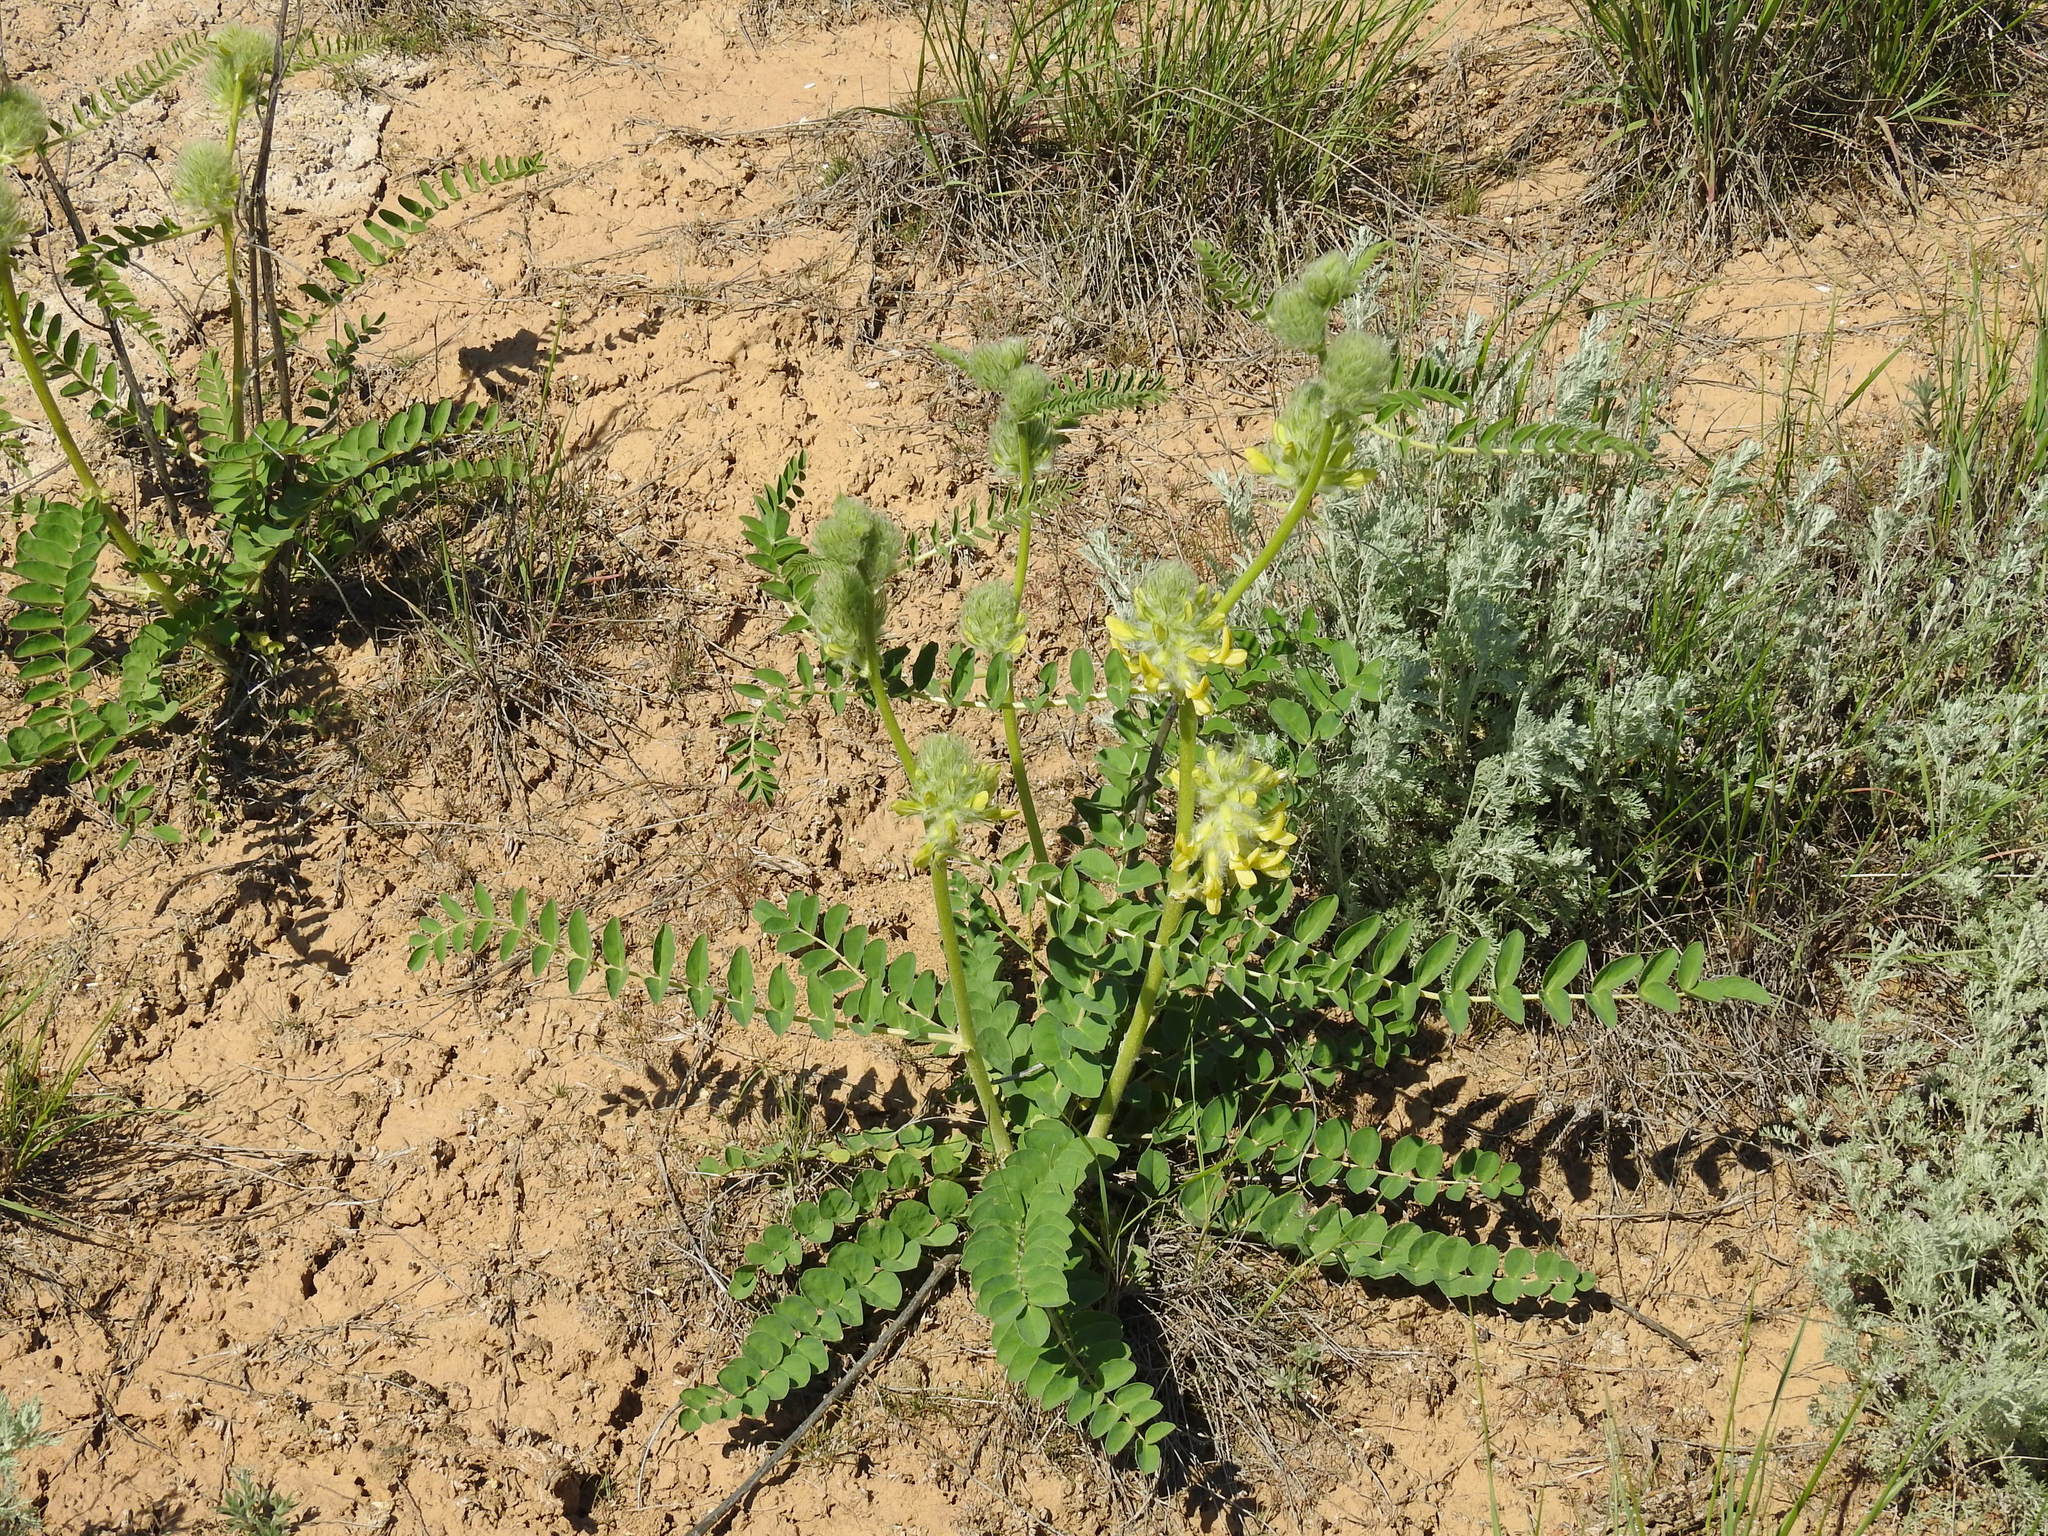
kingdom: Plantae
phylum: Tracheophyta
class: Magnoliopsida
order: Fabales
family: Fabaceae
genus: Astragalus
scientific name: Astragalus vulpinus
